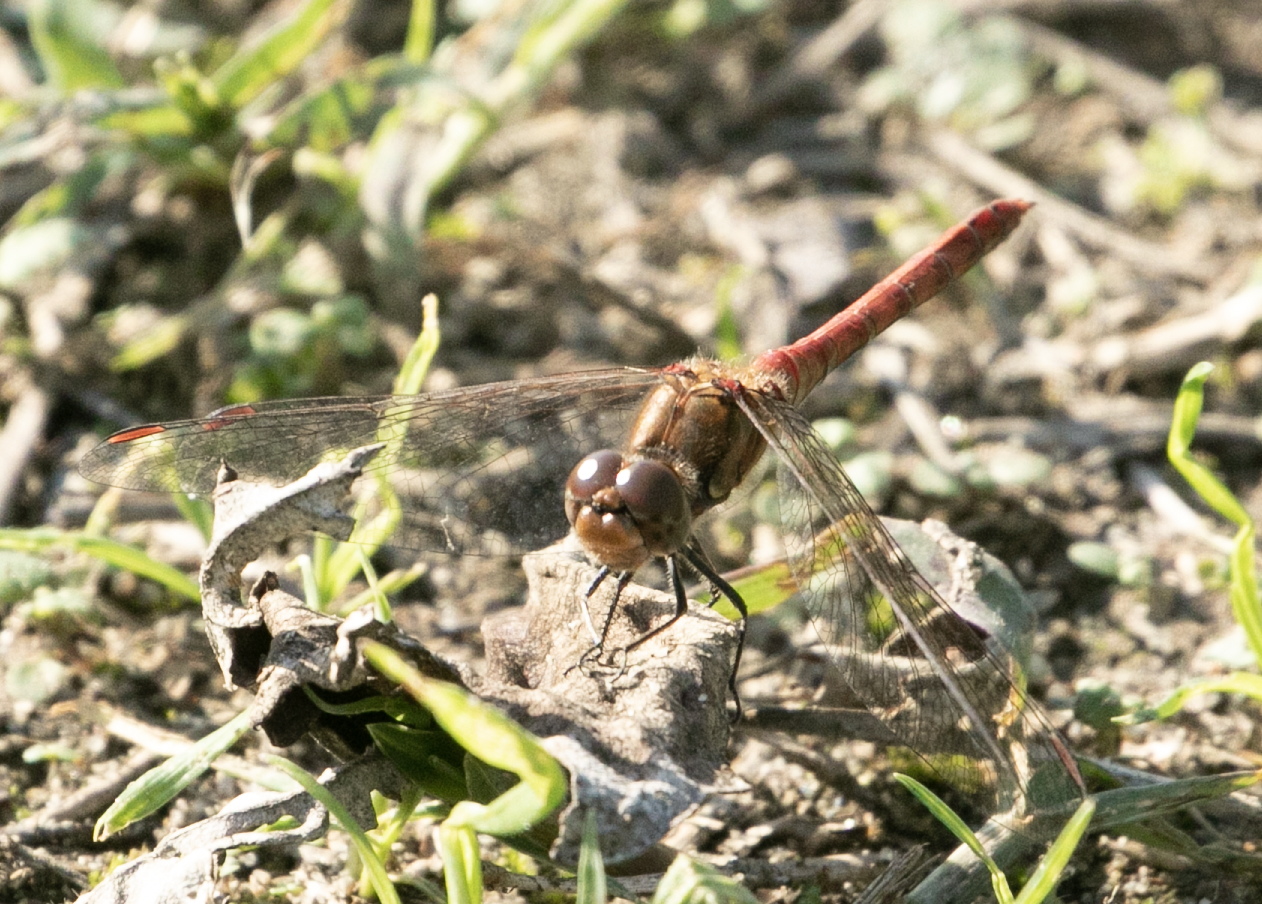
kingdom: Animalia
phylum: Arthropoda
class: Insecta
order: Odonata
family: Libellulidae
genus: Sympetrum
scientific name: Sympetrum striolatum
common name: Common darter
